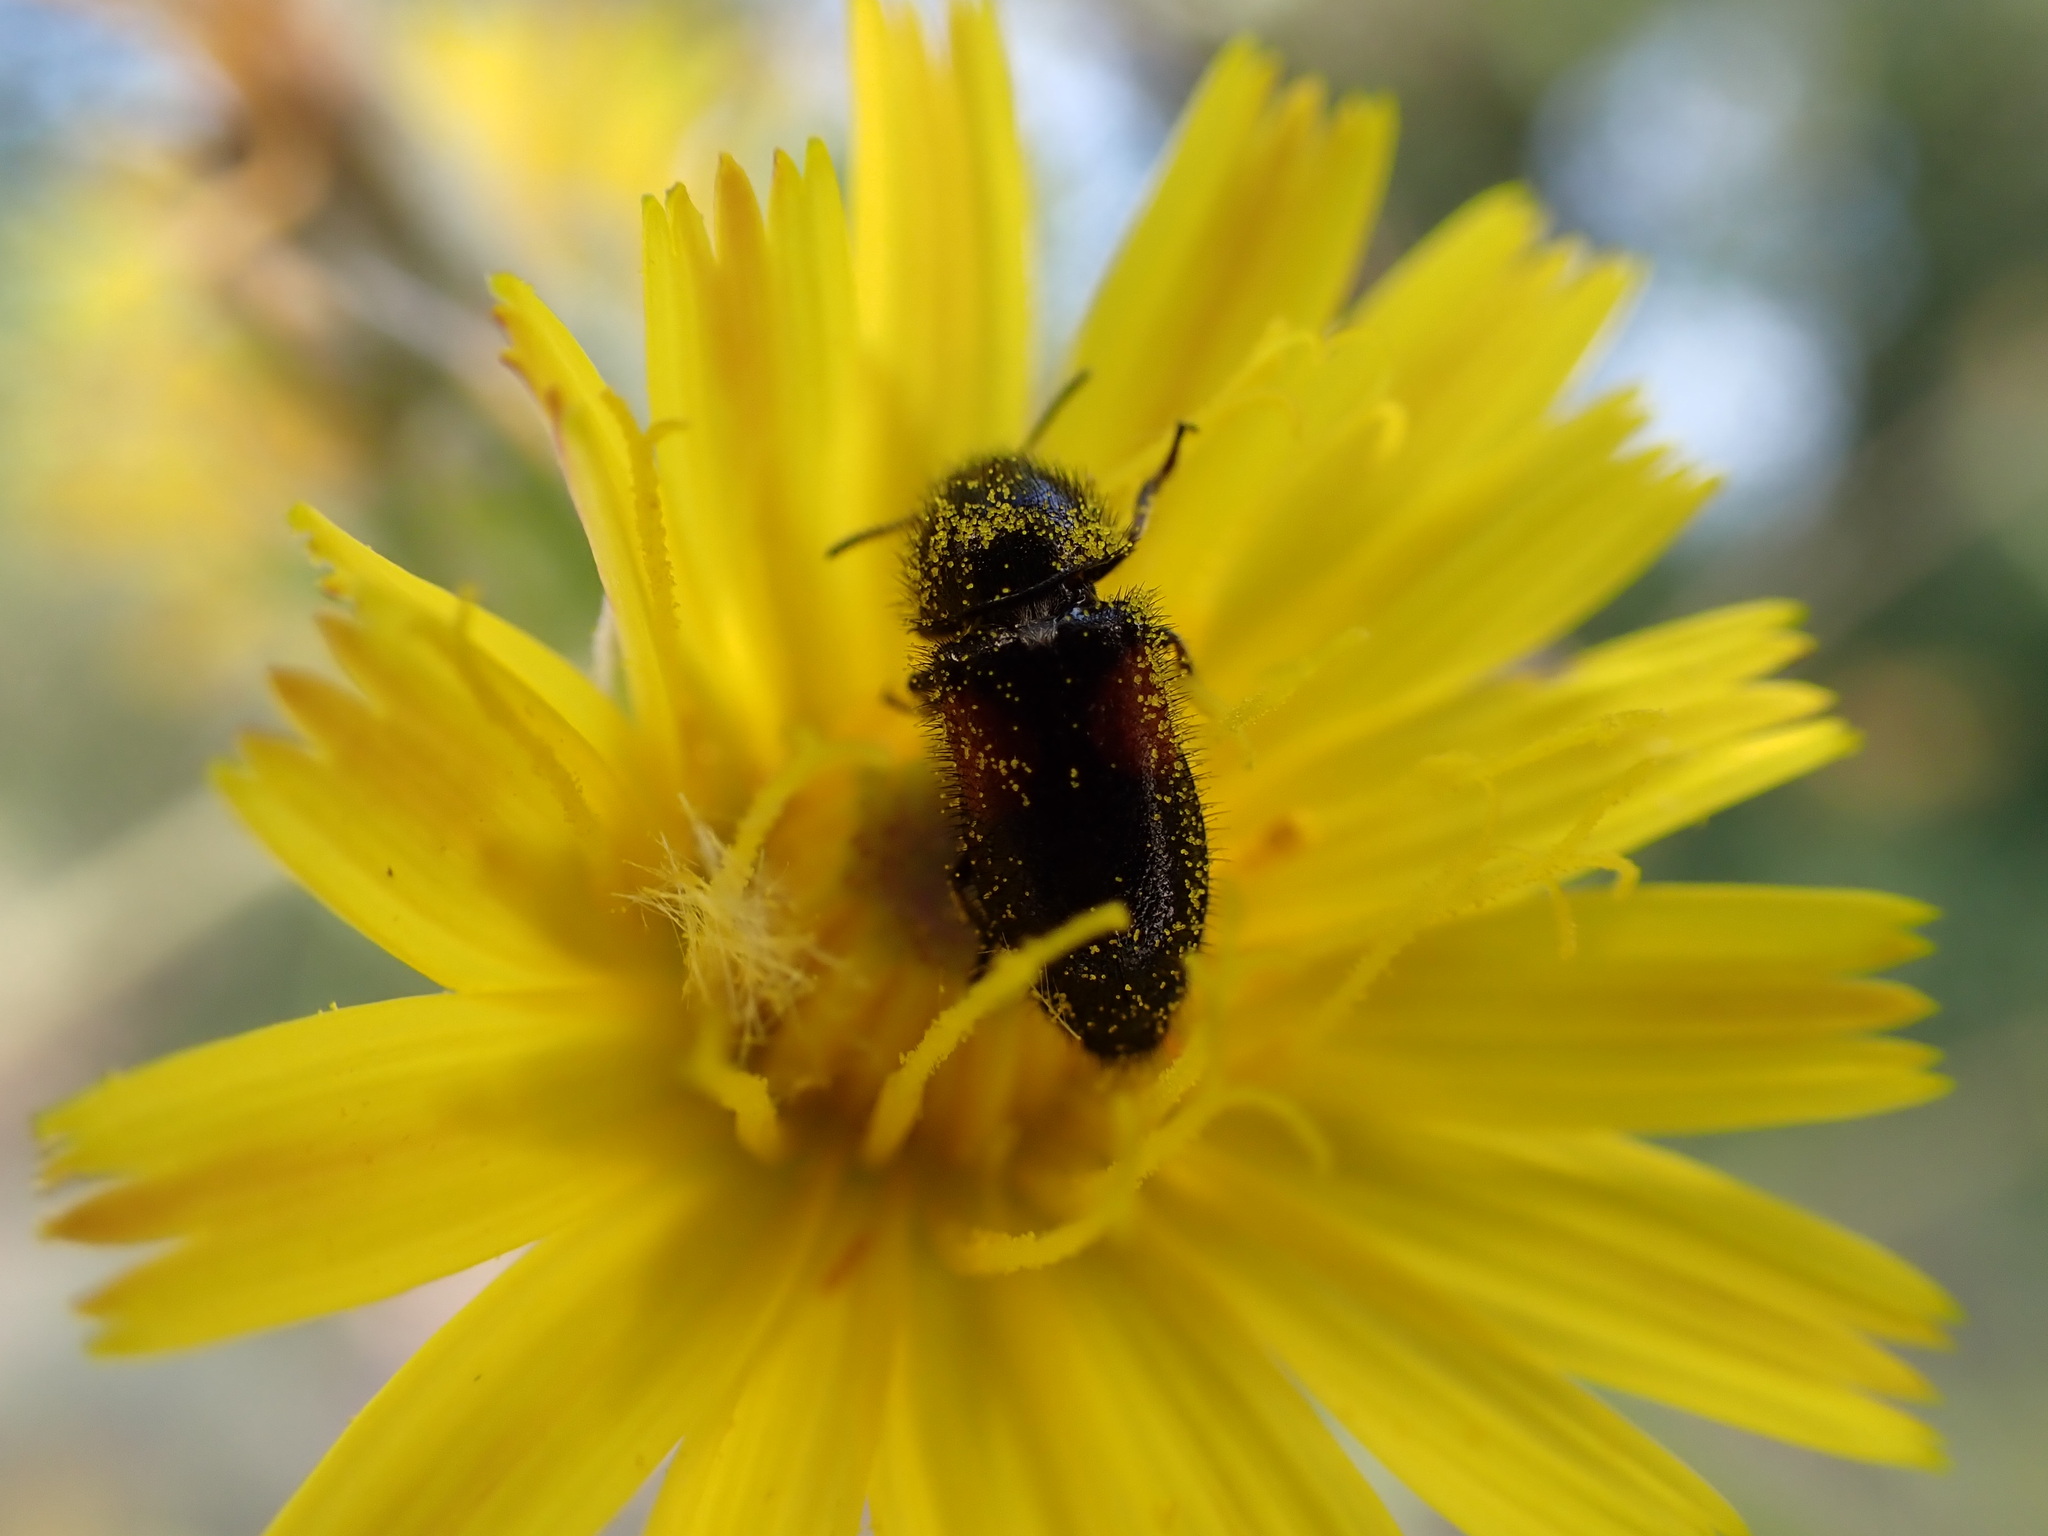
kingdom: Animalia
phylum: Arthropoda
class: Insecta
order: Coleoptera
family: Melyridae
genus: Divales
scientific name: Divales bipustulatus
